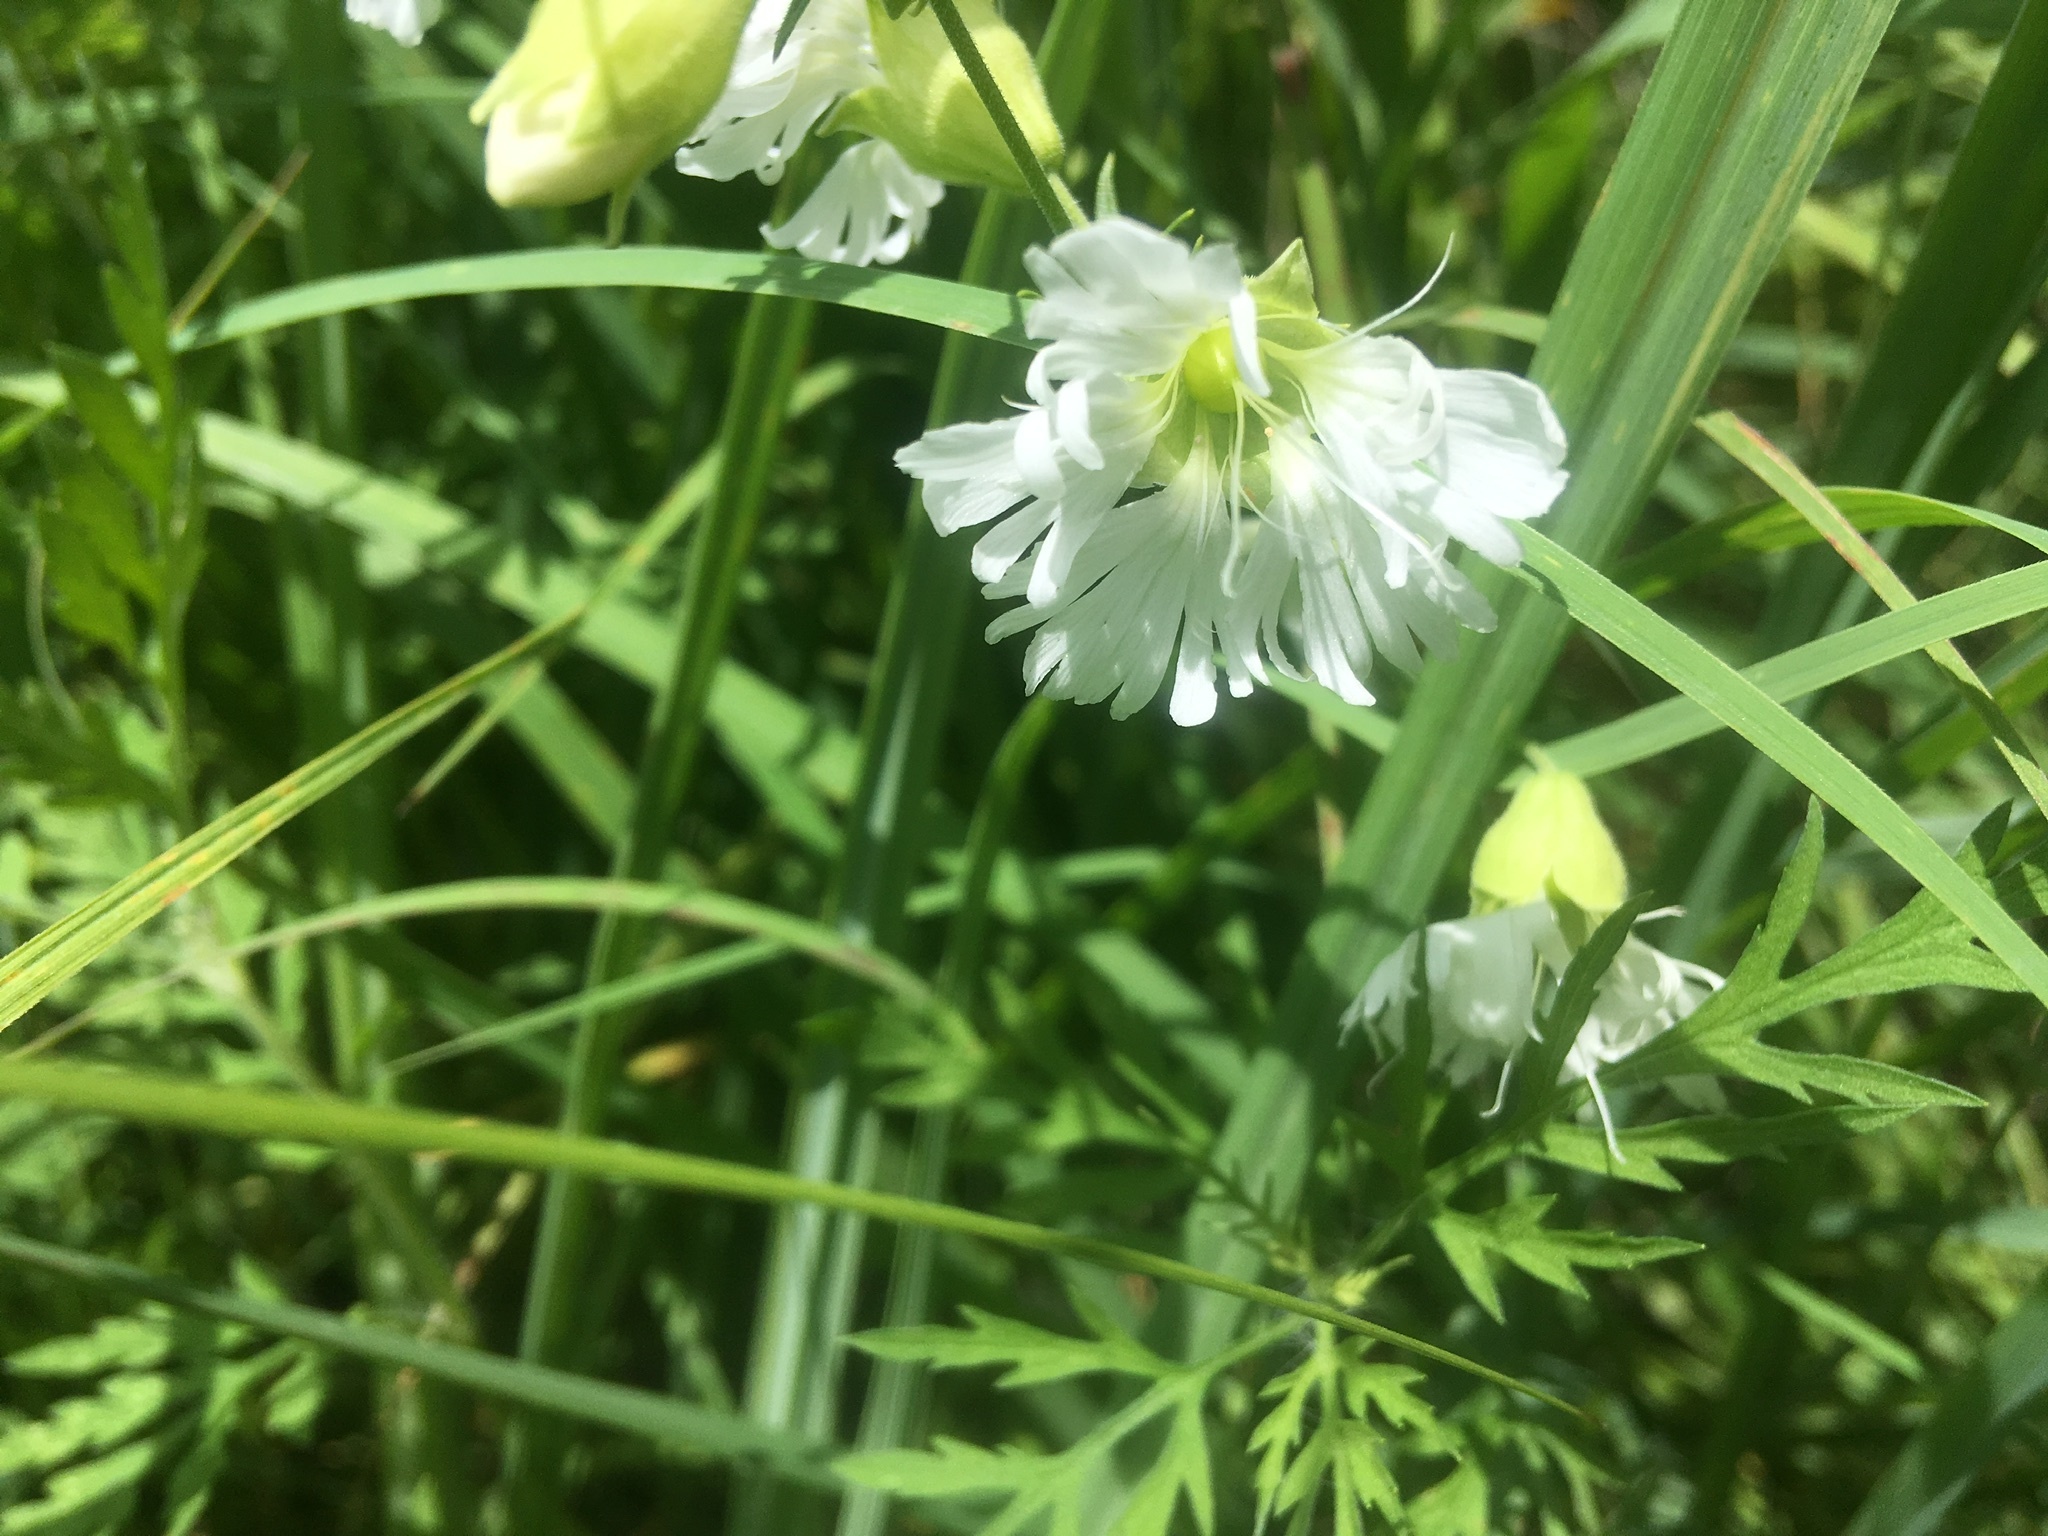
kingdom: Plantae
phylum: Tracheophyta
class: Magnoliopsida
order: Caryophyllales
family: Caryophyllaceae
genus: Silene
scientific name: Silene stellata
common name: Starry campion
